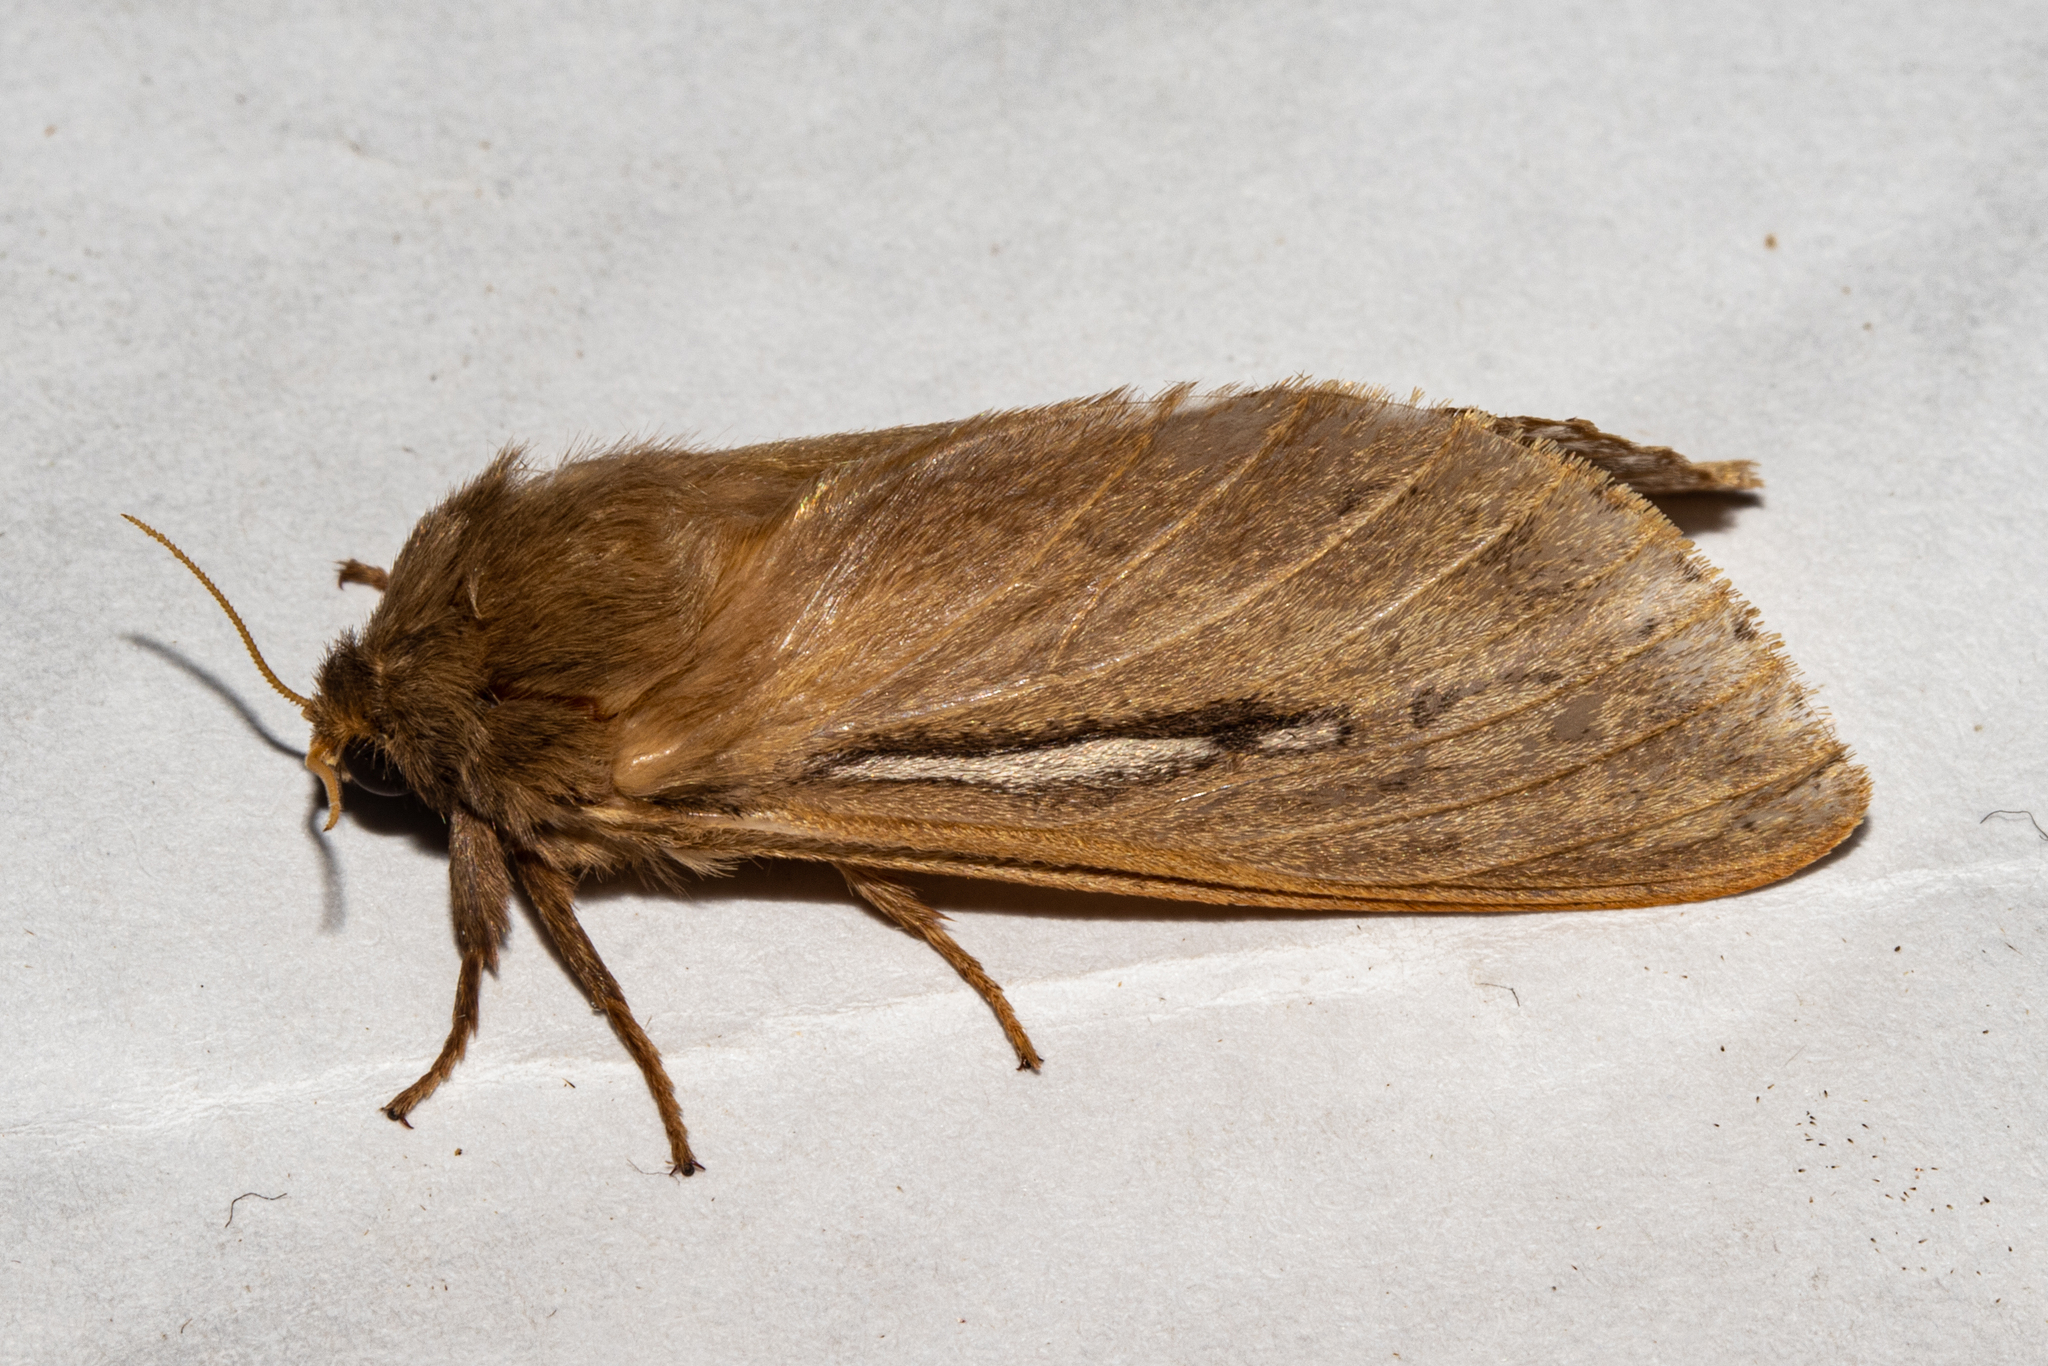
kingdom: Animalia
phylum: Arthropoda
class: Insecta
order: Lepidoptera
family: Hepialidae
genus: Wiseana
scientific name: Wiseana umbraculatus
